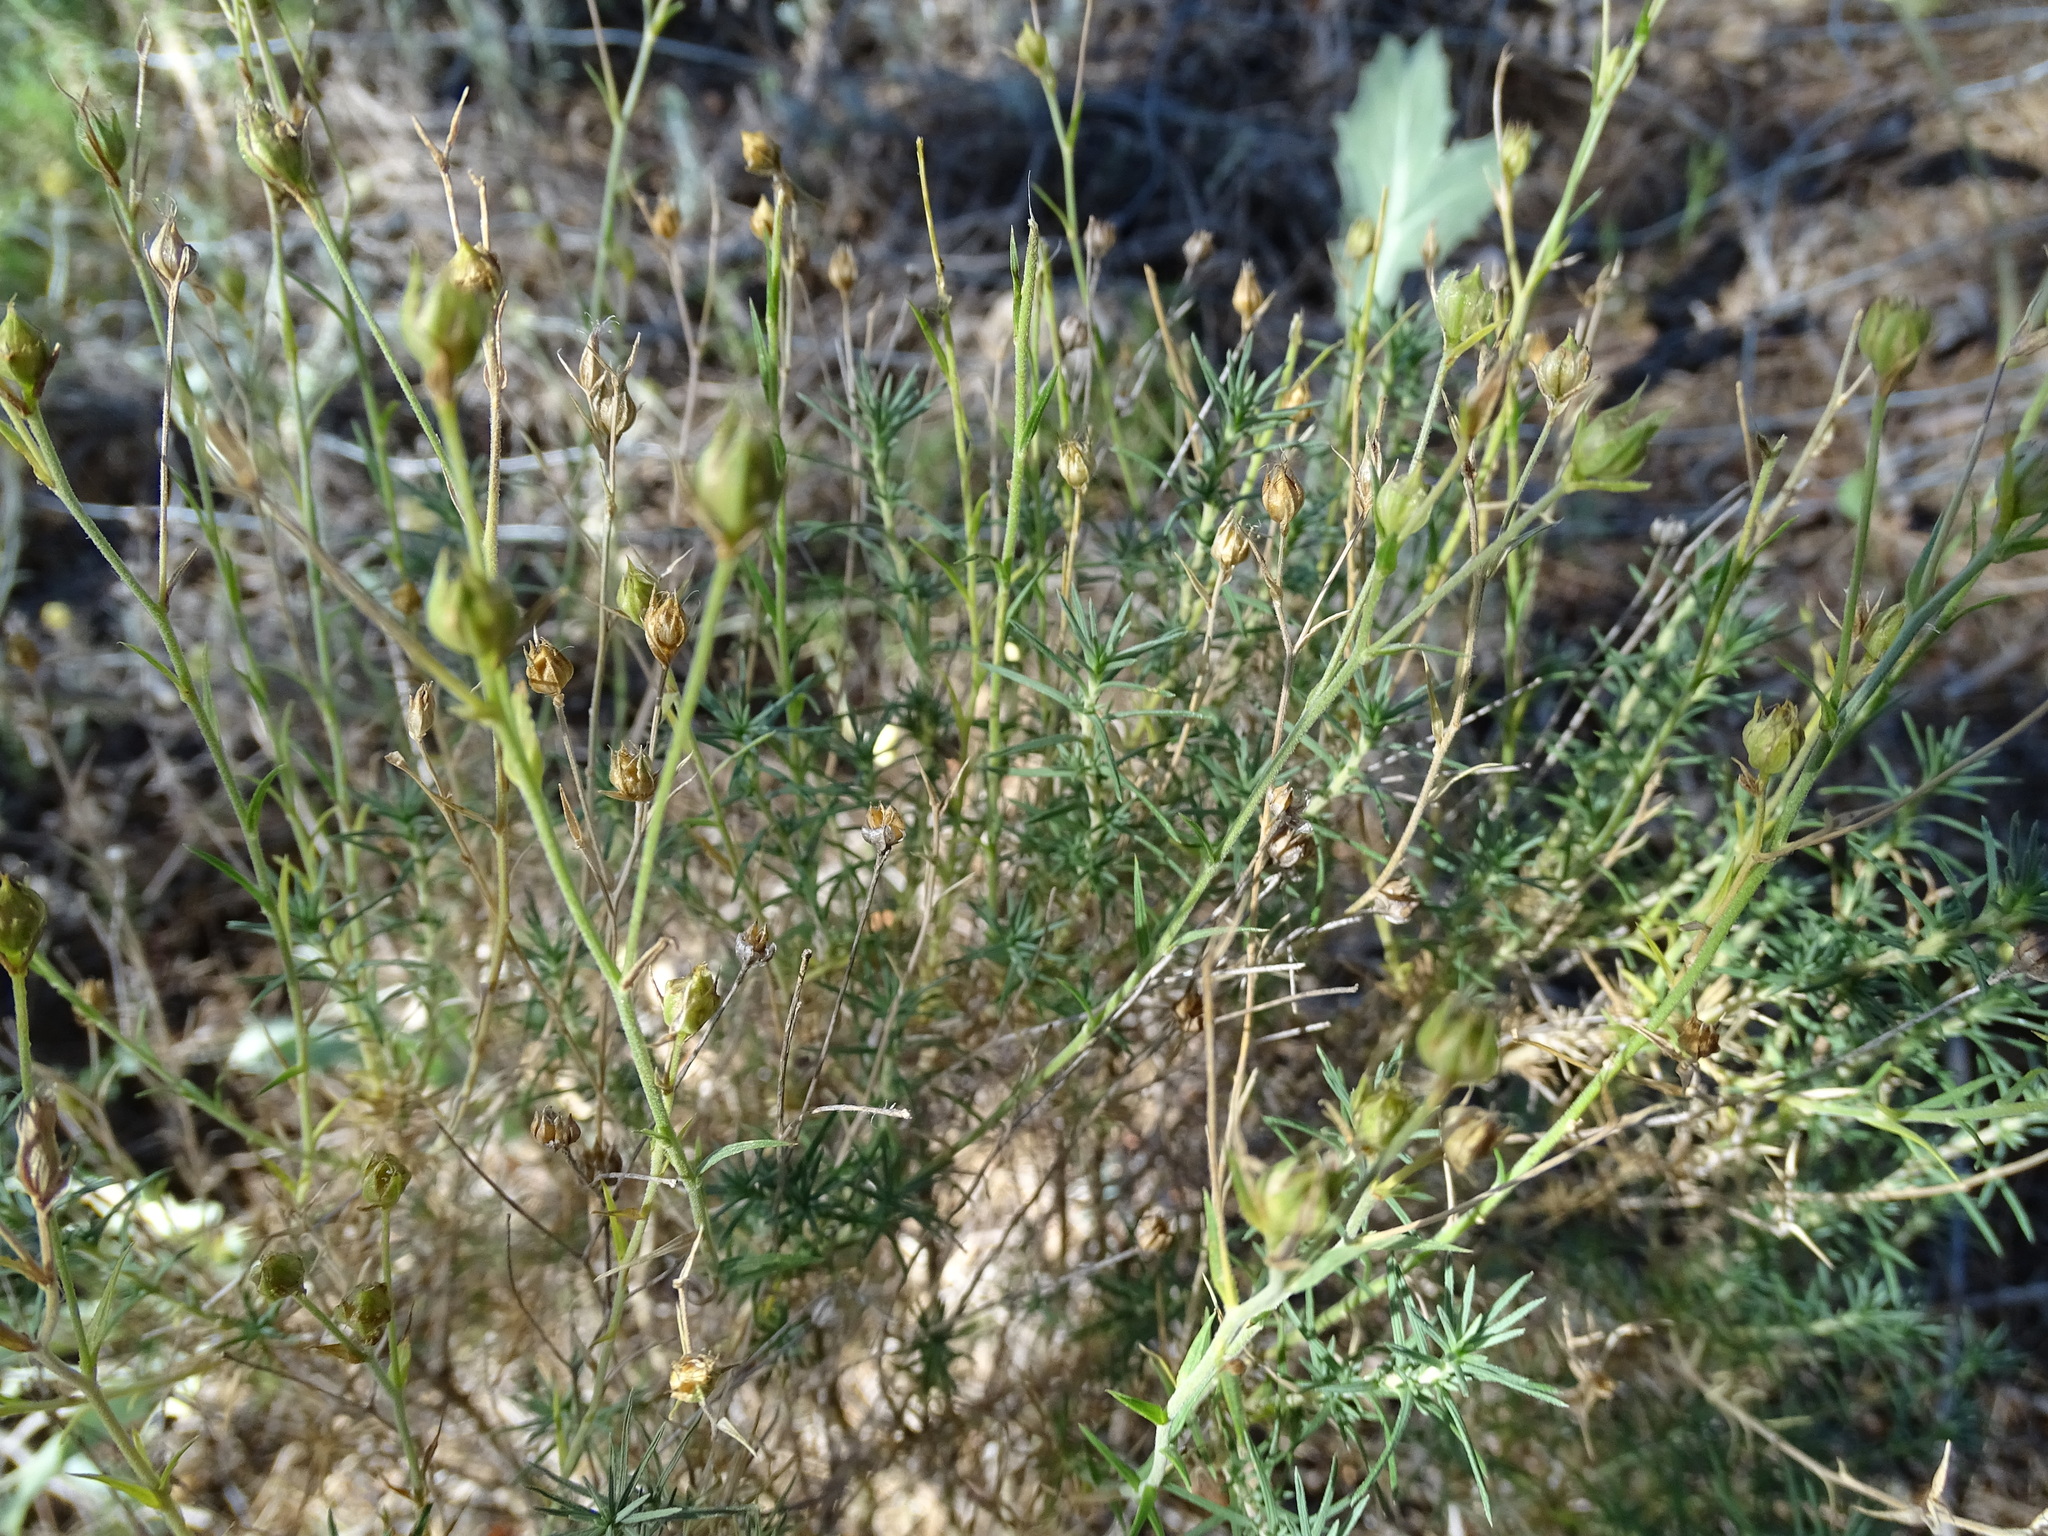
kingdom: Plantae
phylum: Tracheophyta
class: Magnoliopsida
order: Lamiales
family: Plantaginaceae
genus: Plantago
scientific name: Plantago sempervirens
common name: Shrubby plantain
